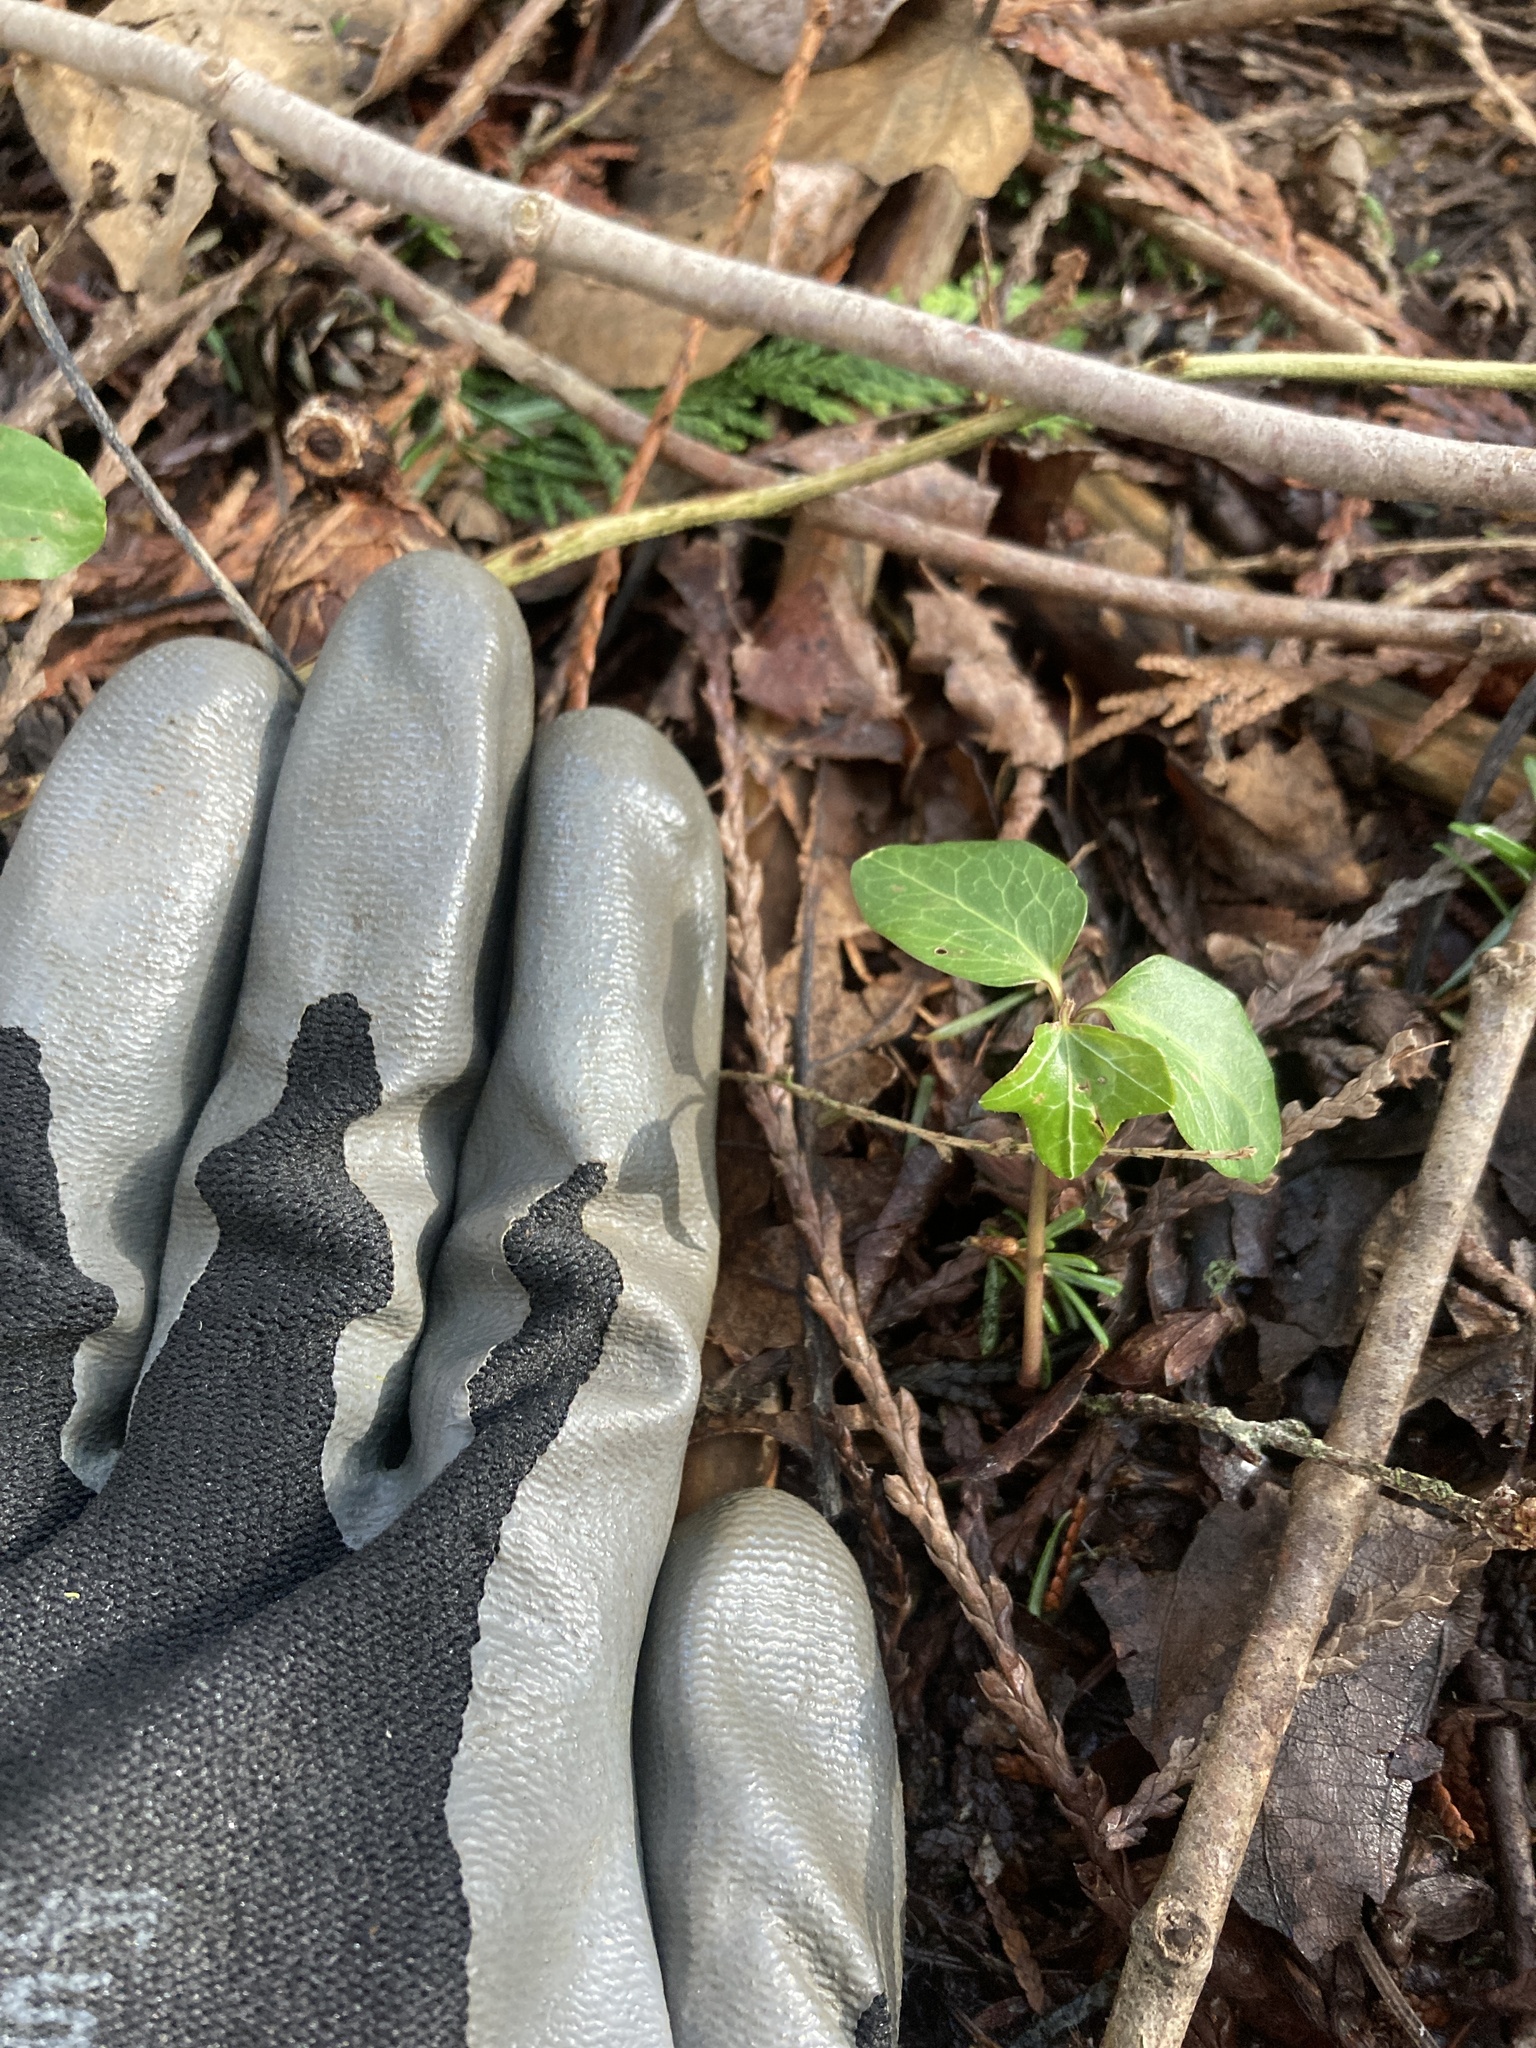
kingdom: Plantae
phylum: Tracheophyta
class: Magnoliopsida
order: Apiales
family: Araliaceae
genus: Hedera
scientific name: Hedera helix
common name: Ivy
